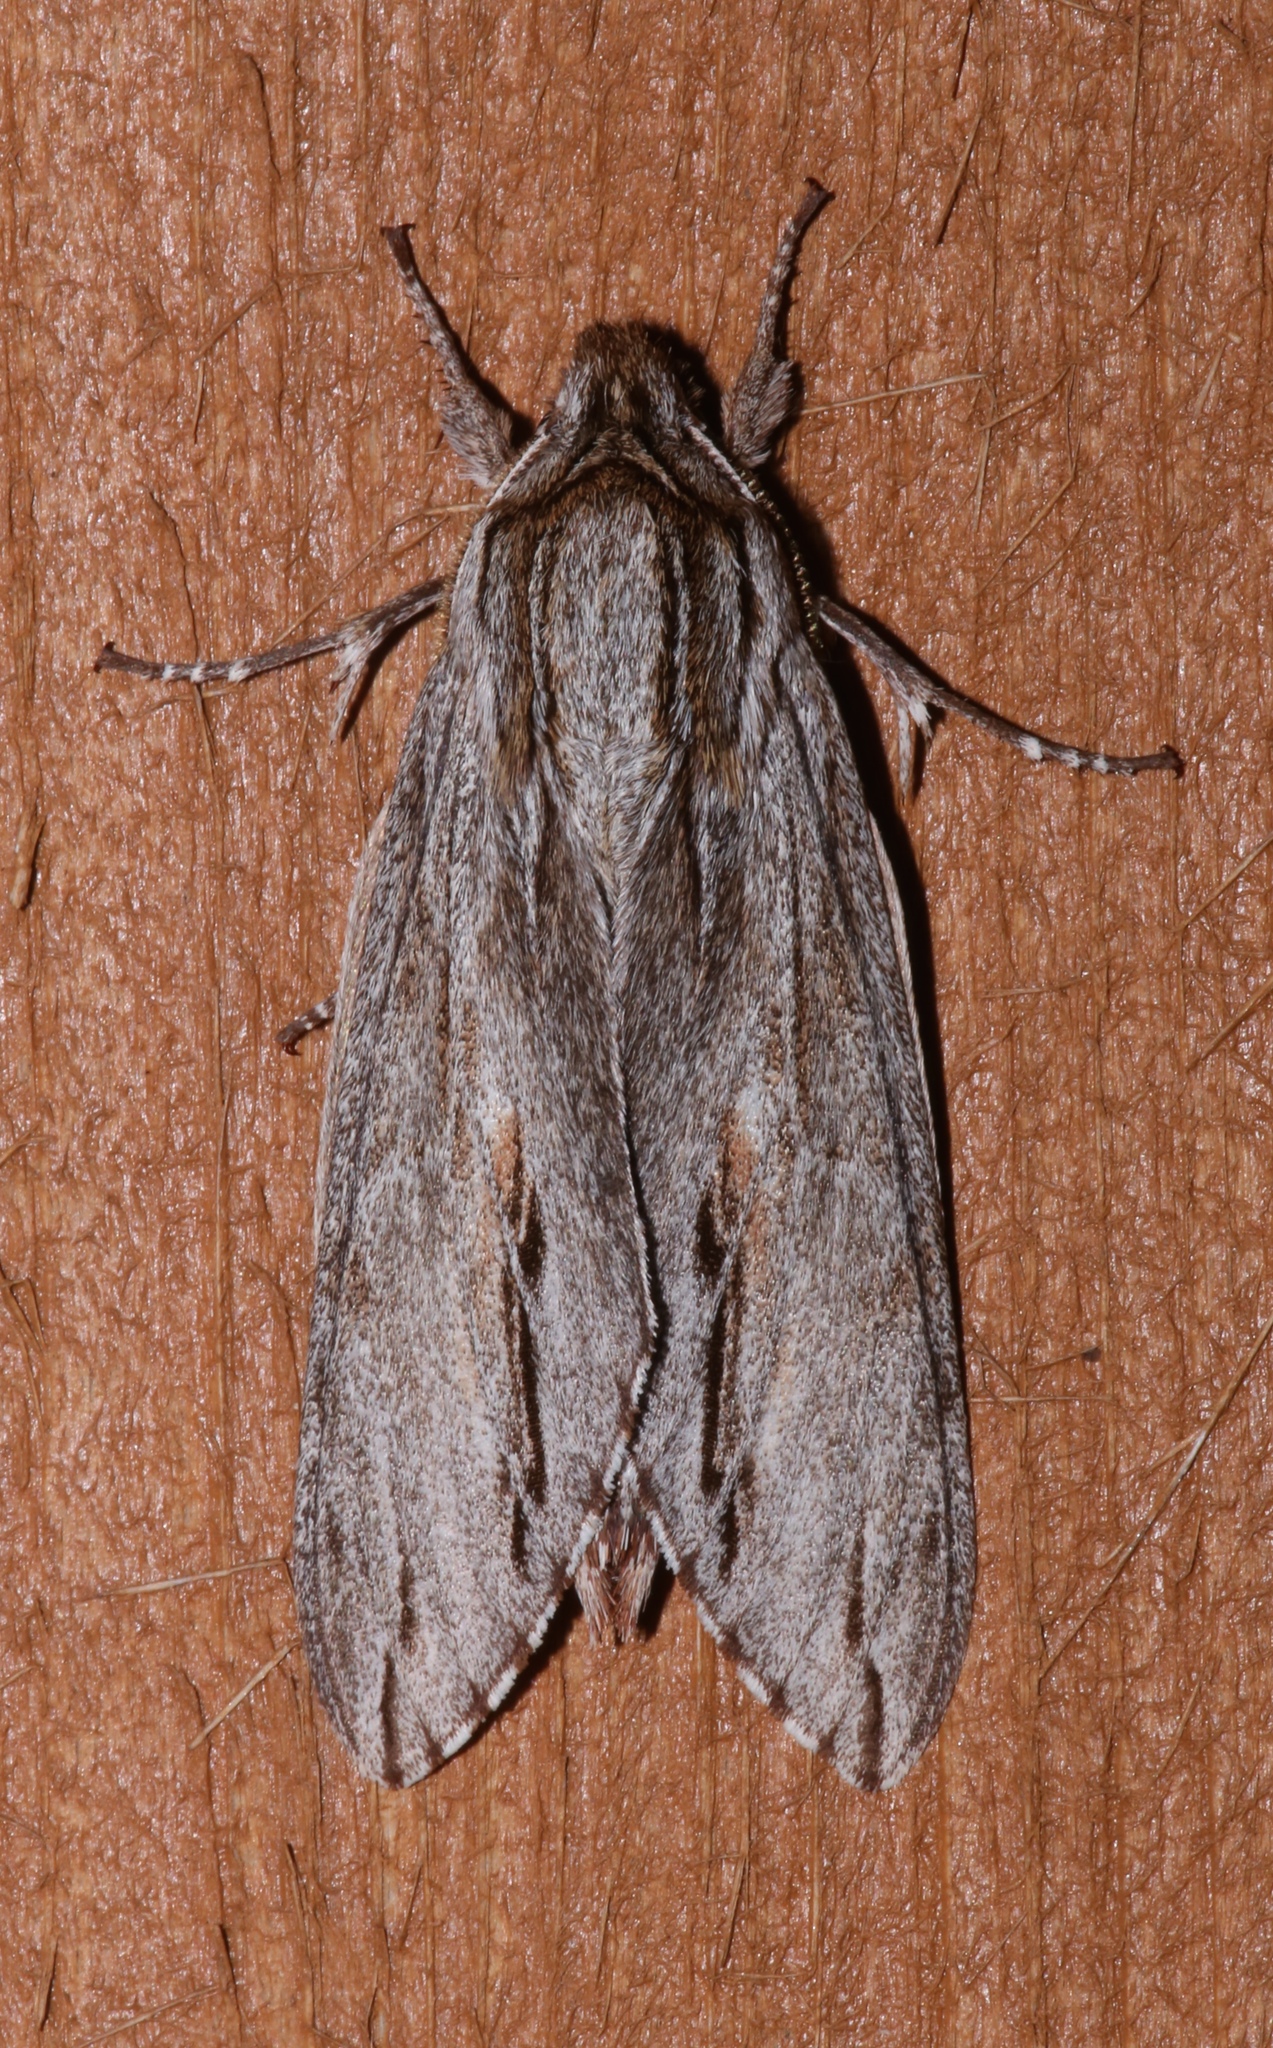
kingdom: Animalia
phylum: Arthropoda
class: Insecta
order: Lepidoptera
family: Sphingidae
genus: Isoparce
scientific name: Isoparce cupressi
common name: Cypress sphinx
